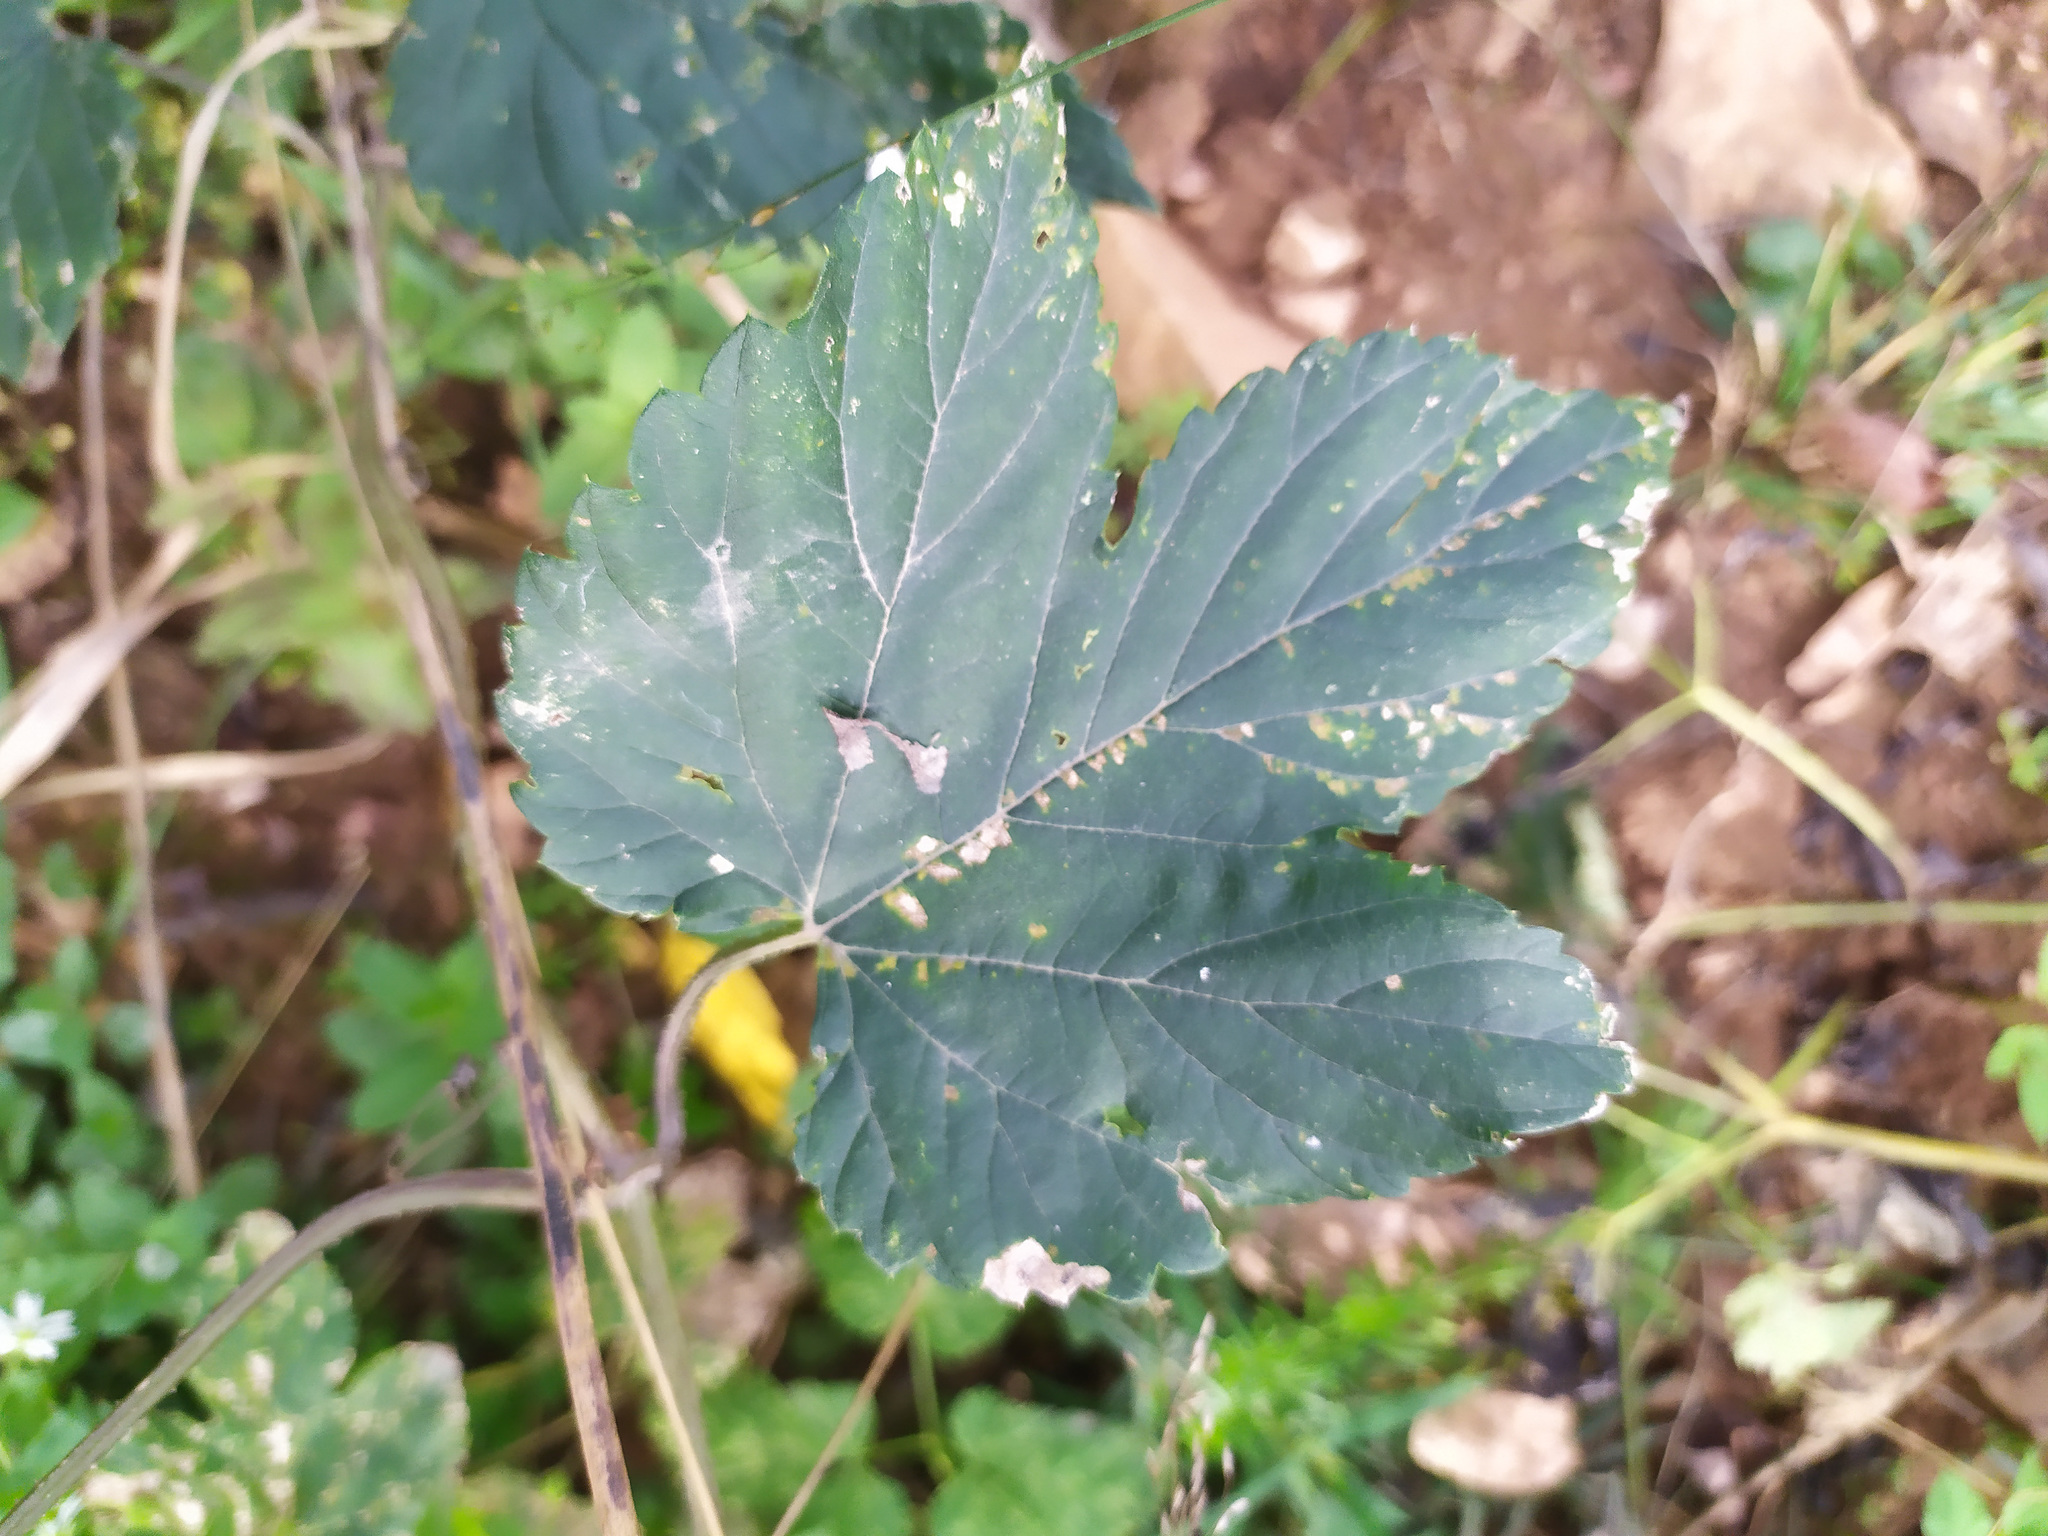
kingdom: Plantae
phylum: Tracheophyta
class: Magnoliopsida
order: Rosales
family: Cannabaceae
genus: Humulus
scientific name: Humulus lupulus
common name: Hop
